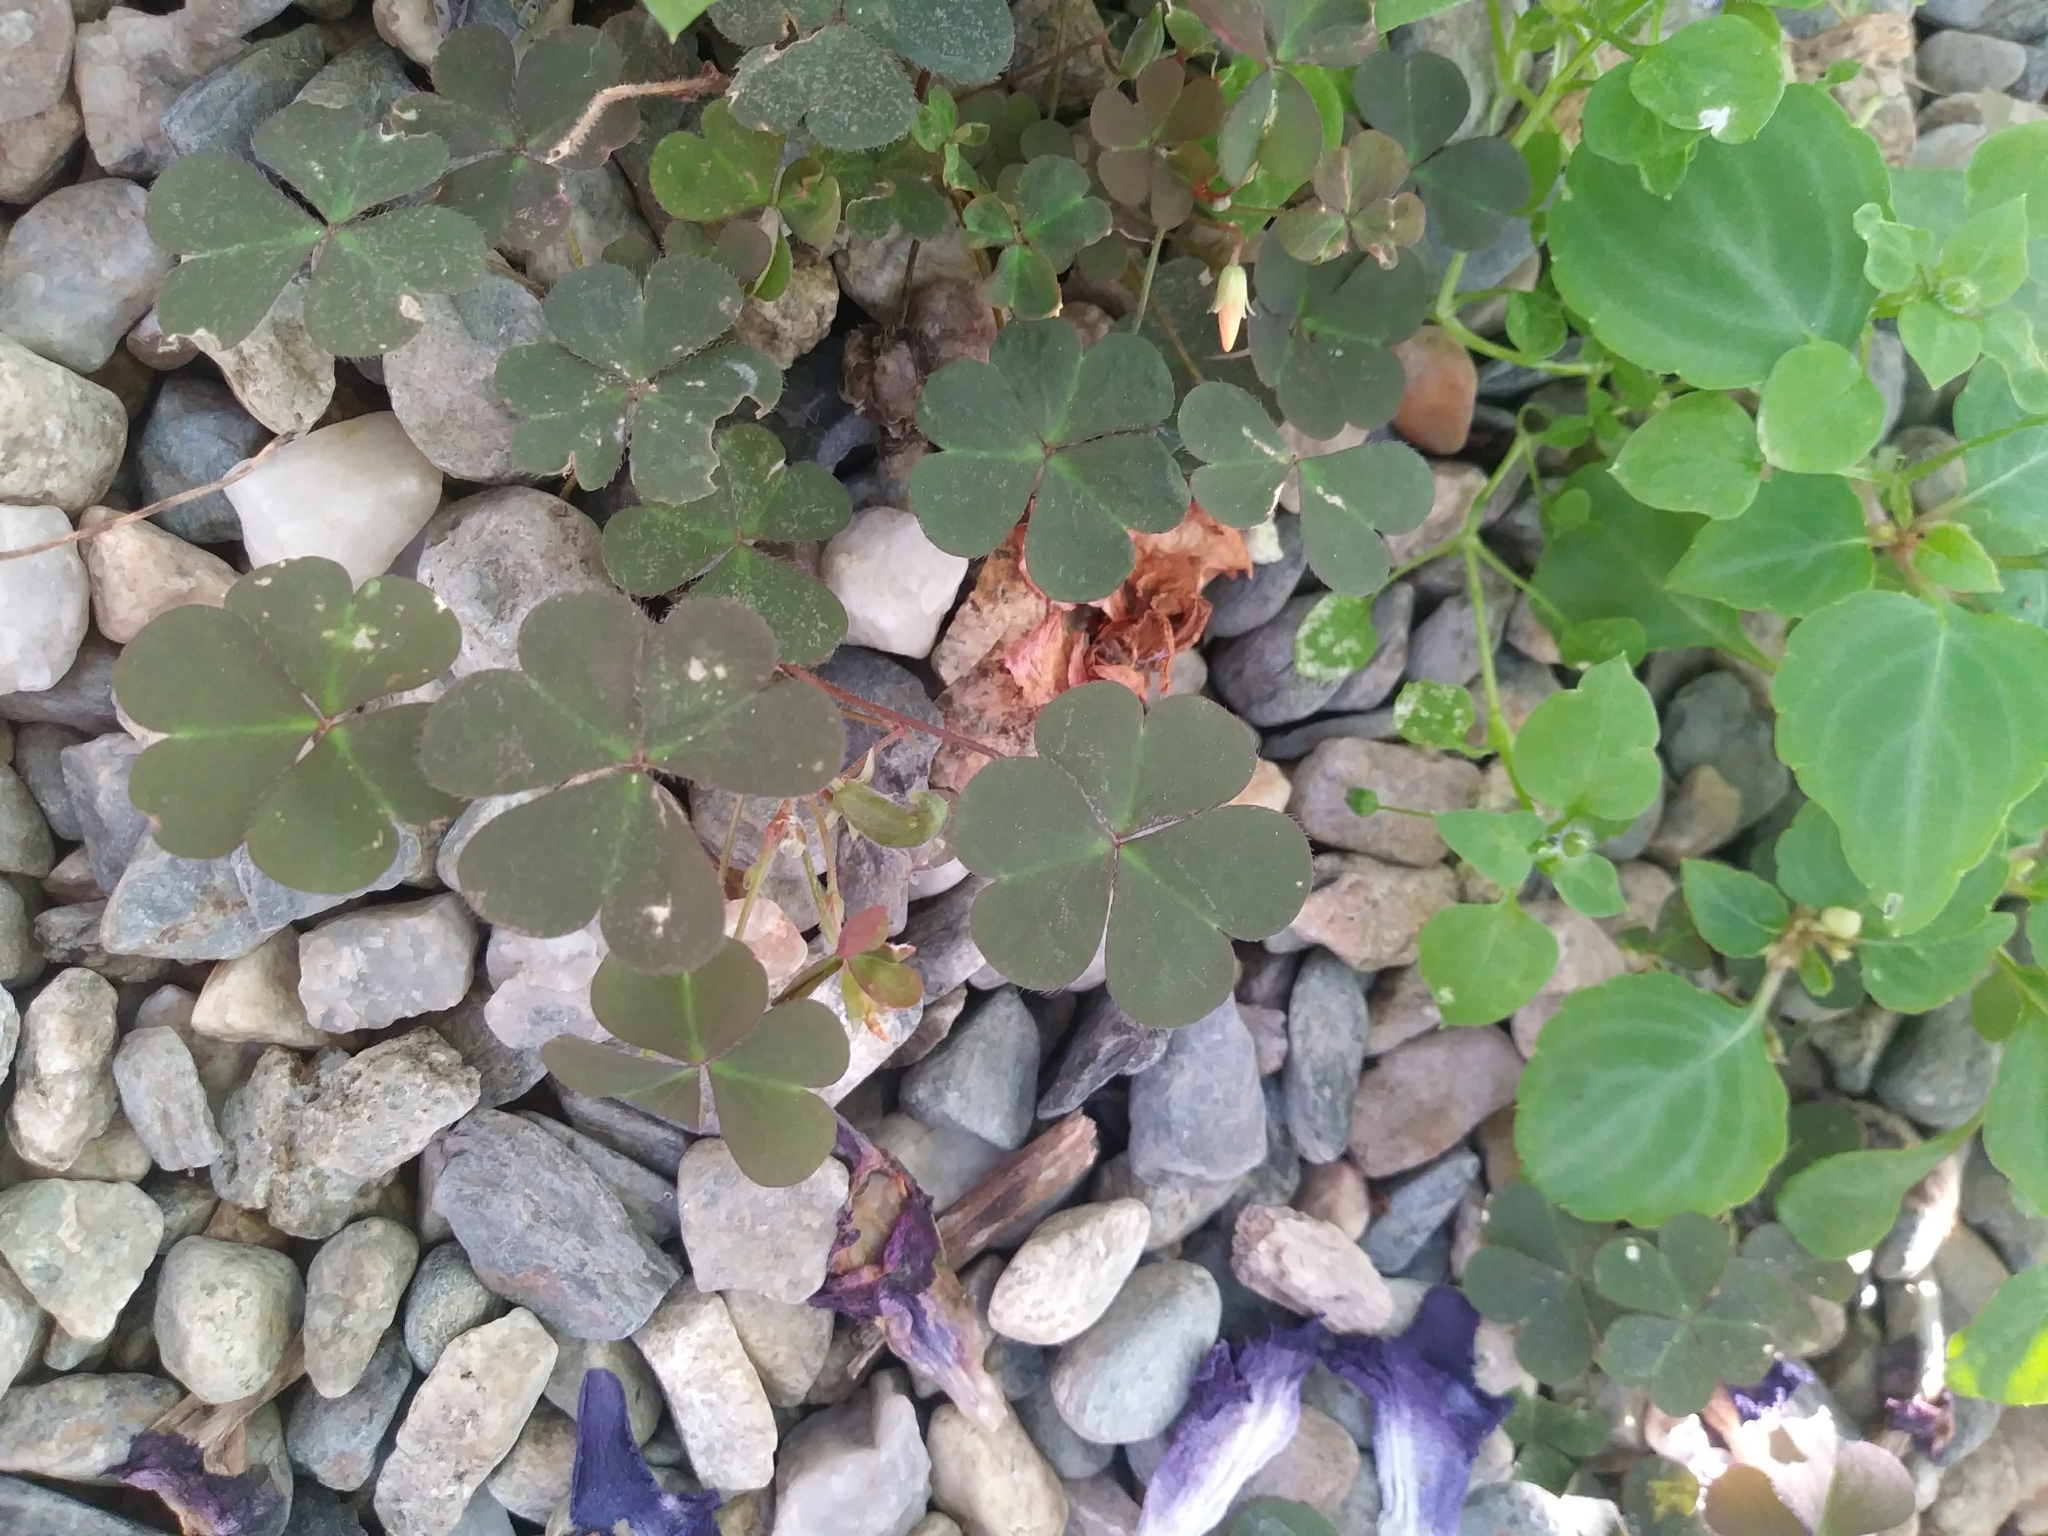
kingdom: Plantae
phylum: Tracheophyta
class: Magnoliopsida
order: Oxalidales
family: Oxalidaceae
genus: Oxalis
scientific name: Oxalis corniculata
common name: Procumbent yellow-sorrel
